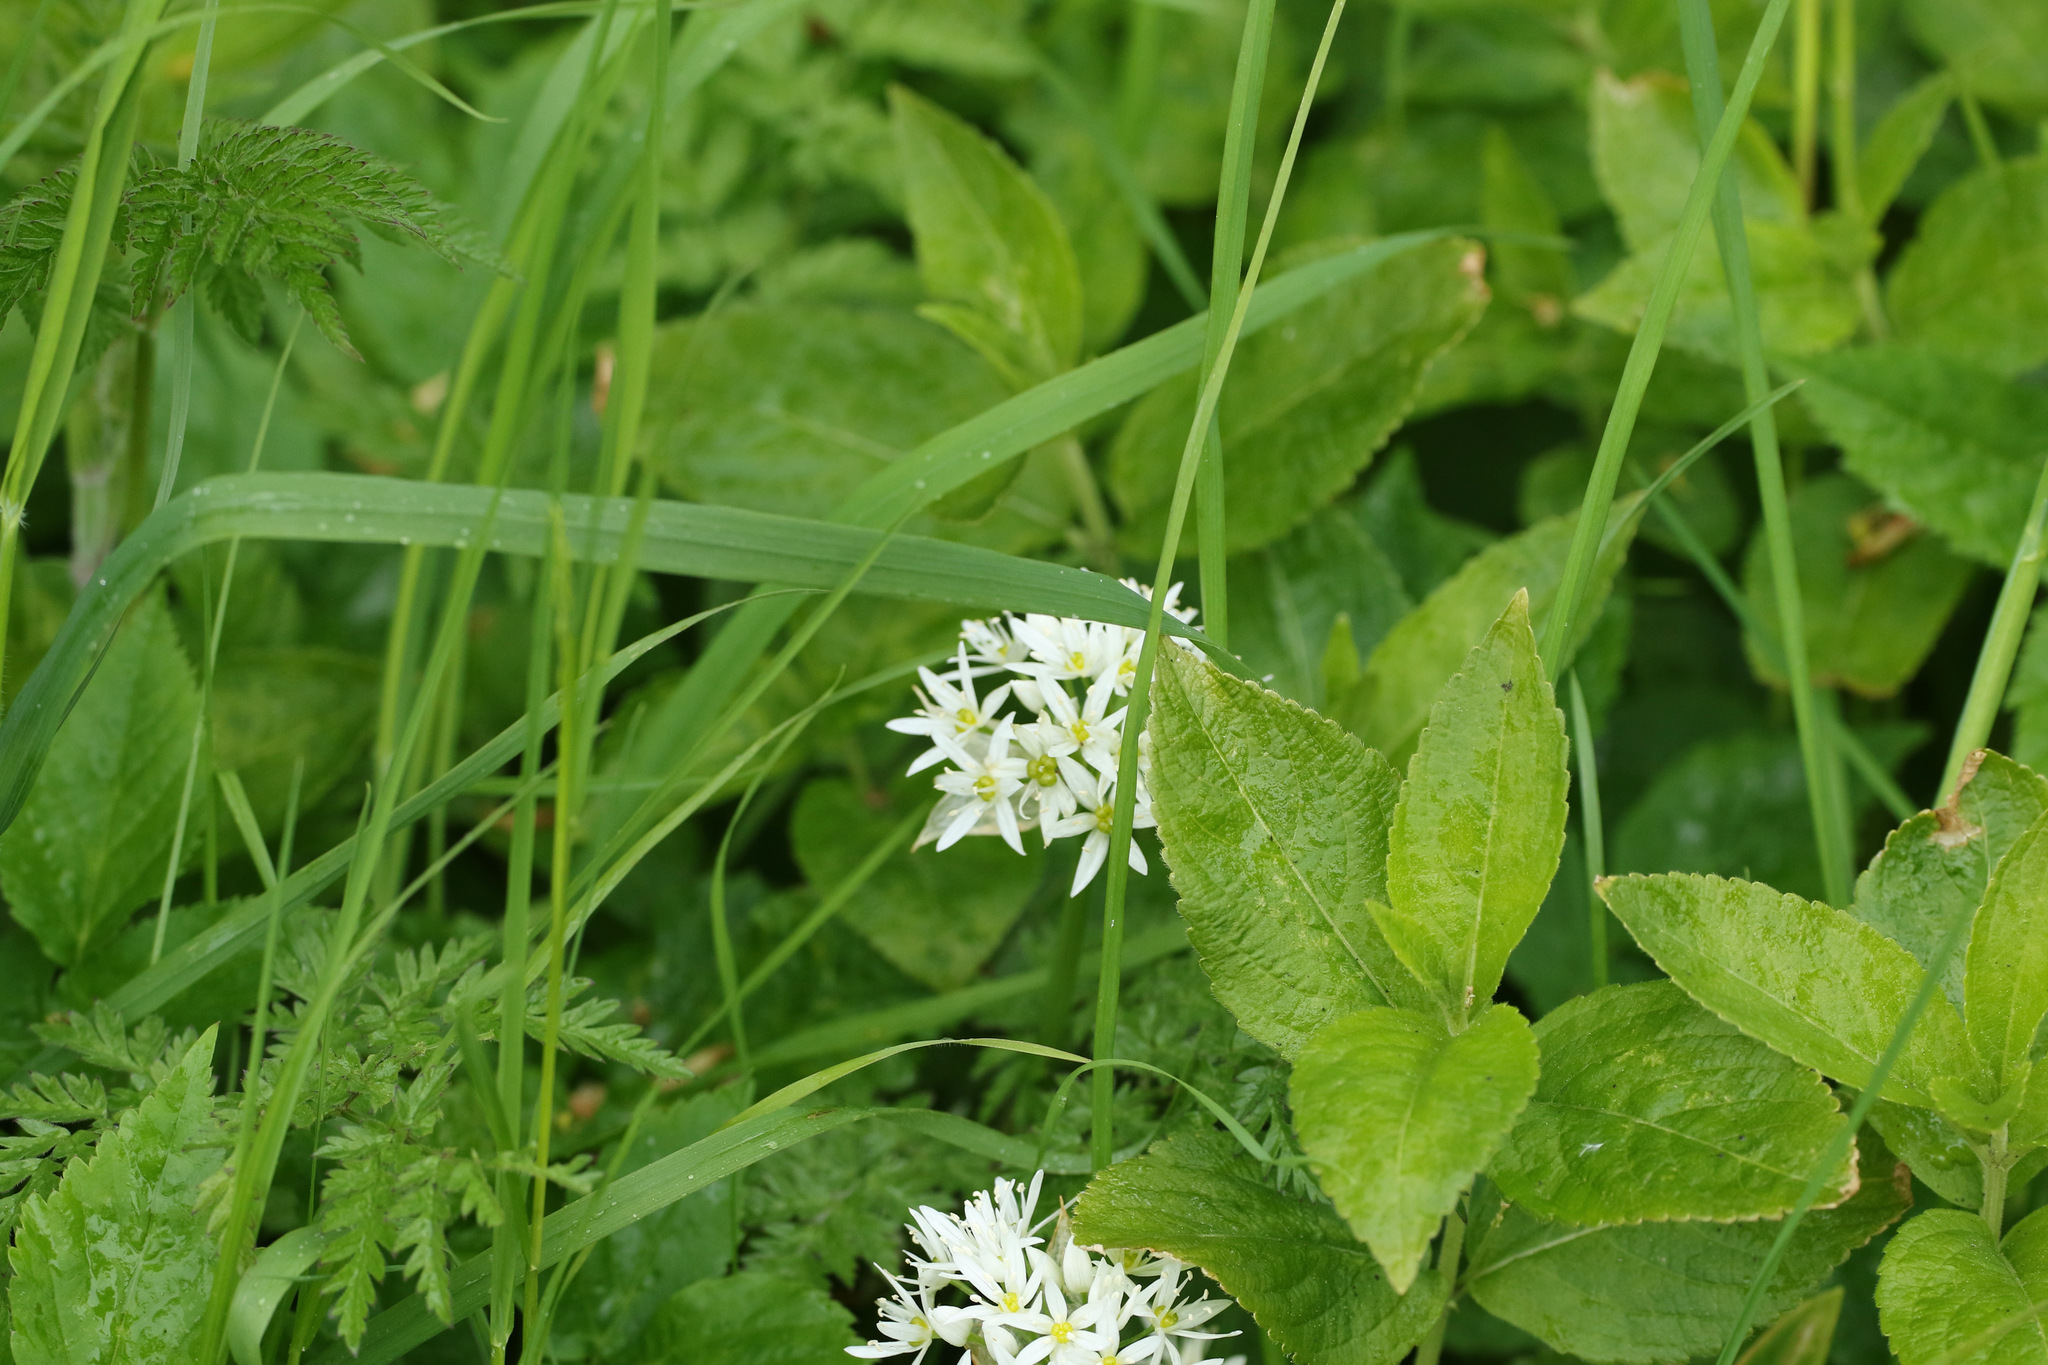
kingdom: Plantae
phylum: Tracheophyta
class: Liliopsida
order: Asparagales
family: Amaryllidaceae
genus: Allium
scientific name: Allium ursinum
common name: Ramsons
